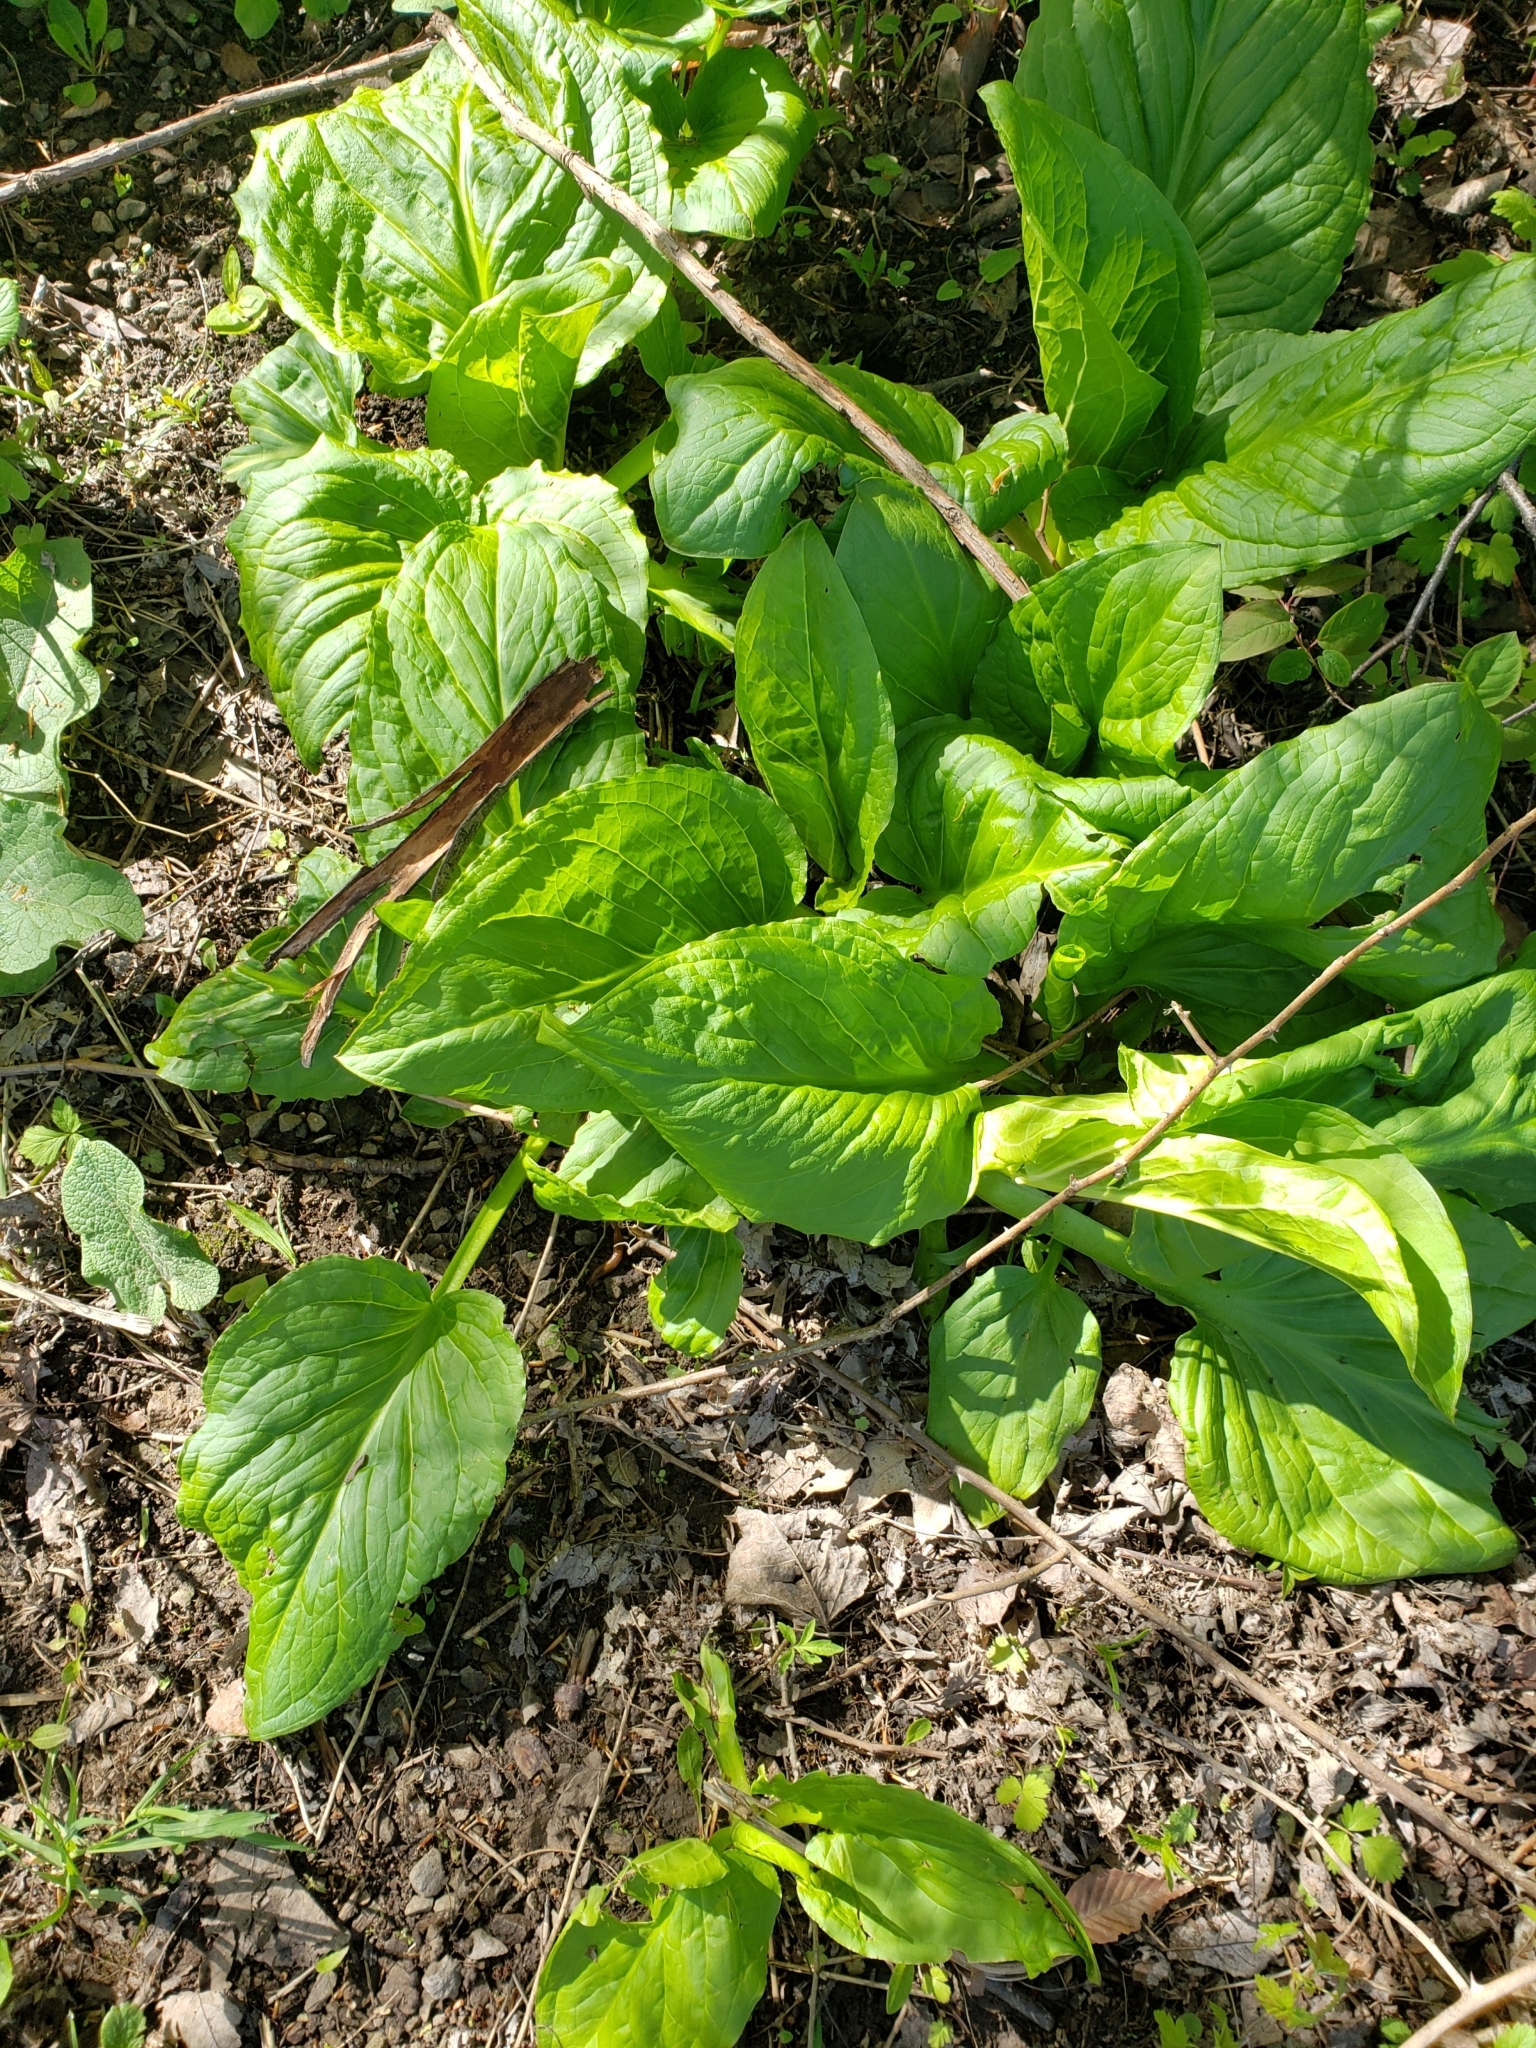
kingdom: Plantae
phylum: Tracheophyta
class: Liliopsida
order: Alismatales
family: Araceae
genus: Symplocarpus
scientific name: Symplocarpus foetidus
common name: Eastern skunk cabbage
